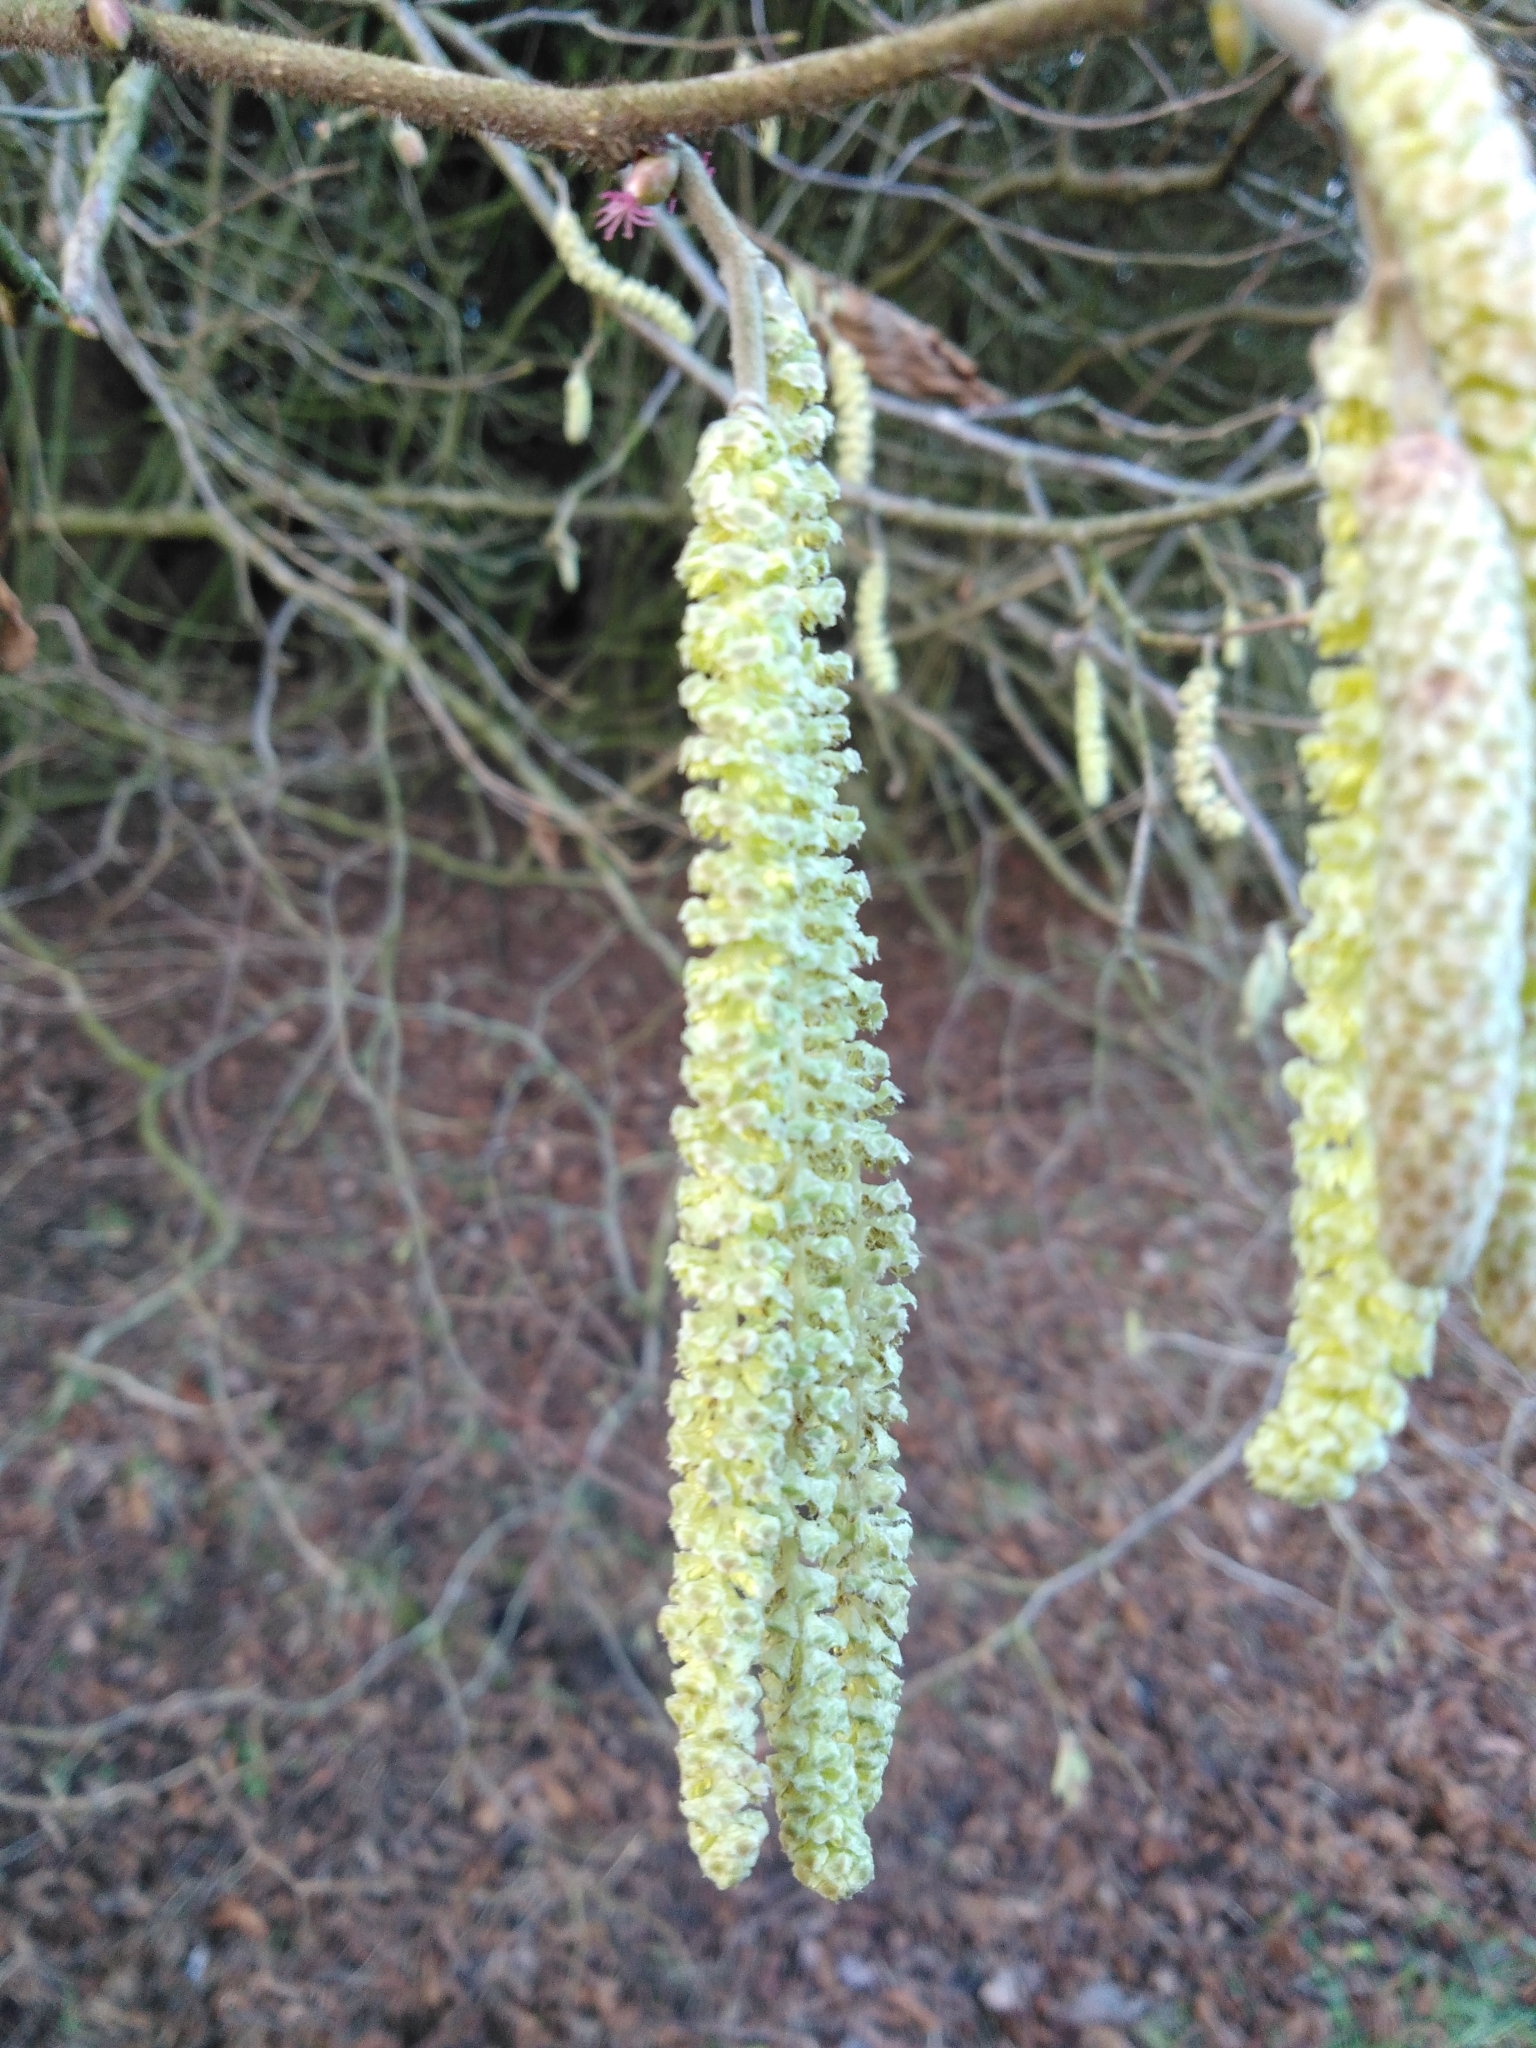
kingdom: Plantae
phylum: Tracheophyta
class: Magnoliopsida
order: Fagales
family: Betulaceae
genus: Corylus
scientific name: Corylus avellana
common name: European hazel
